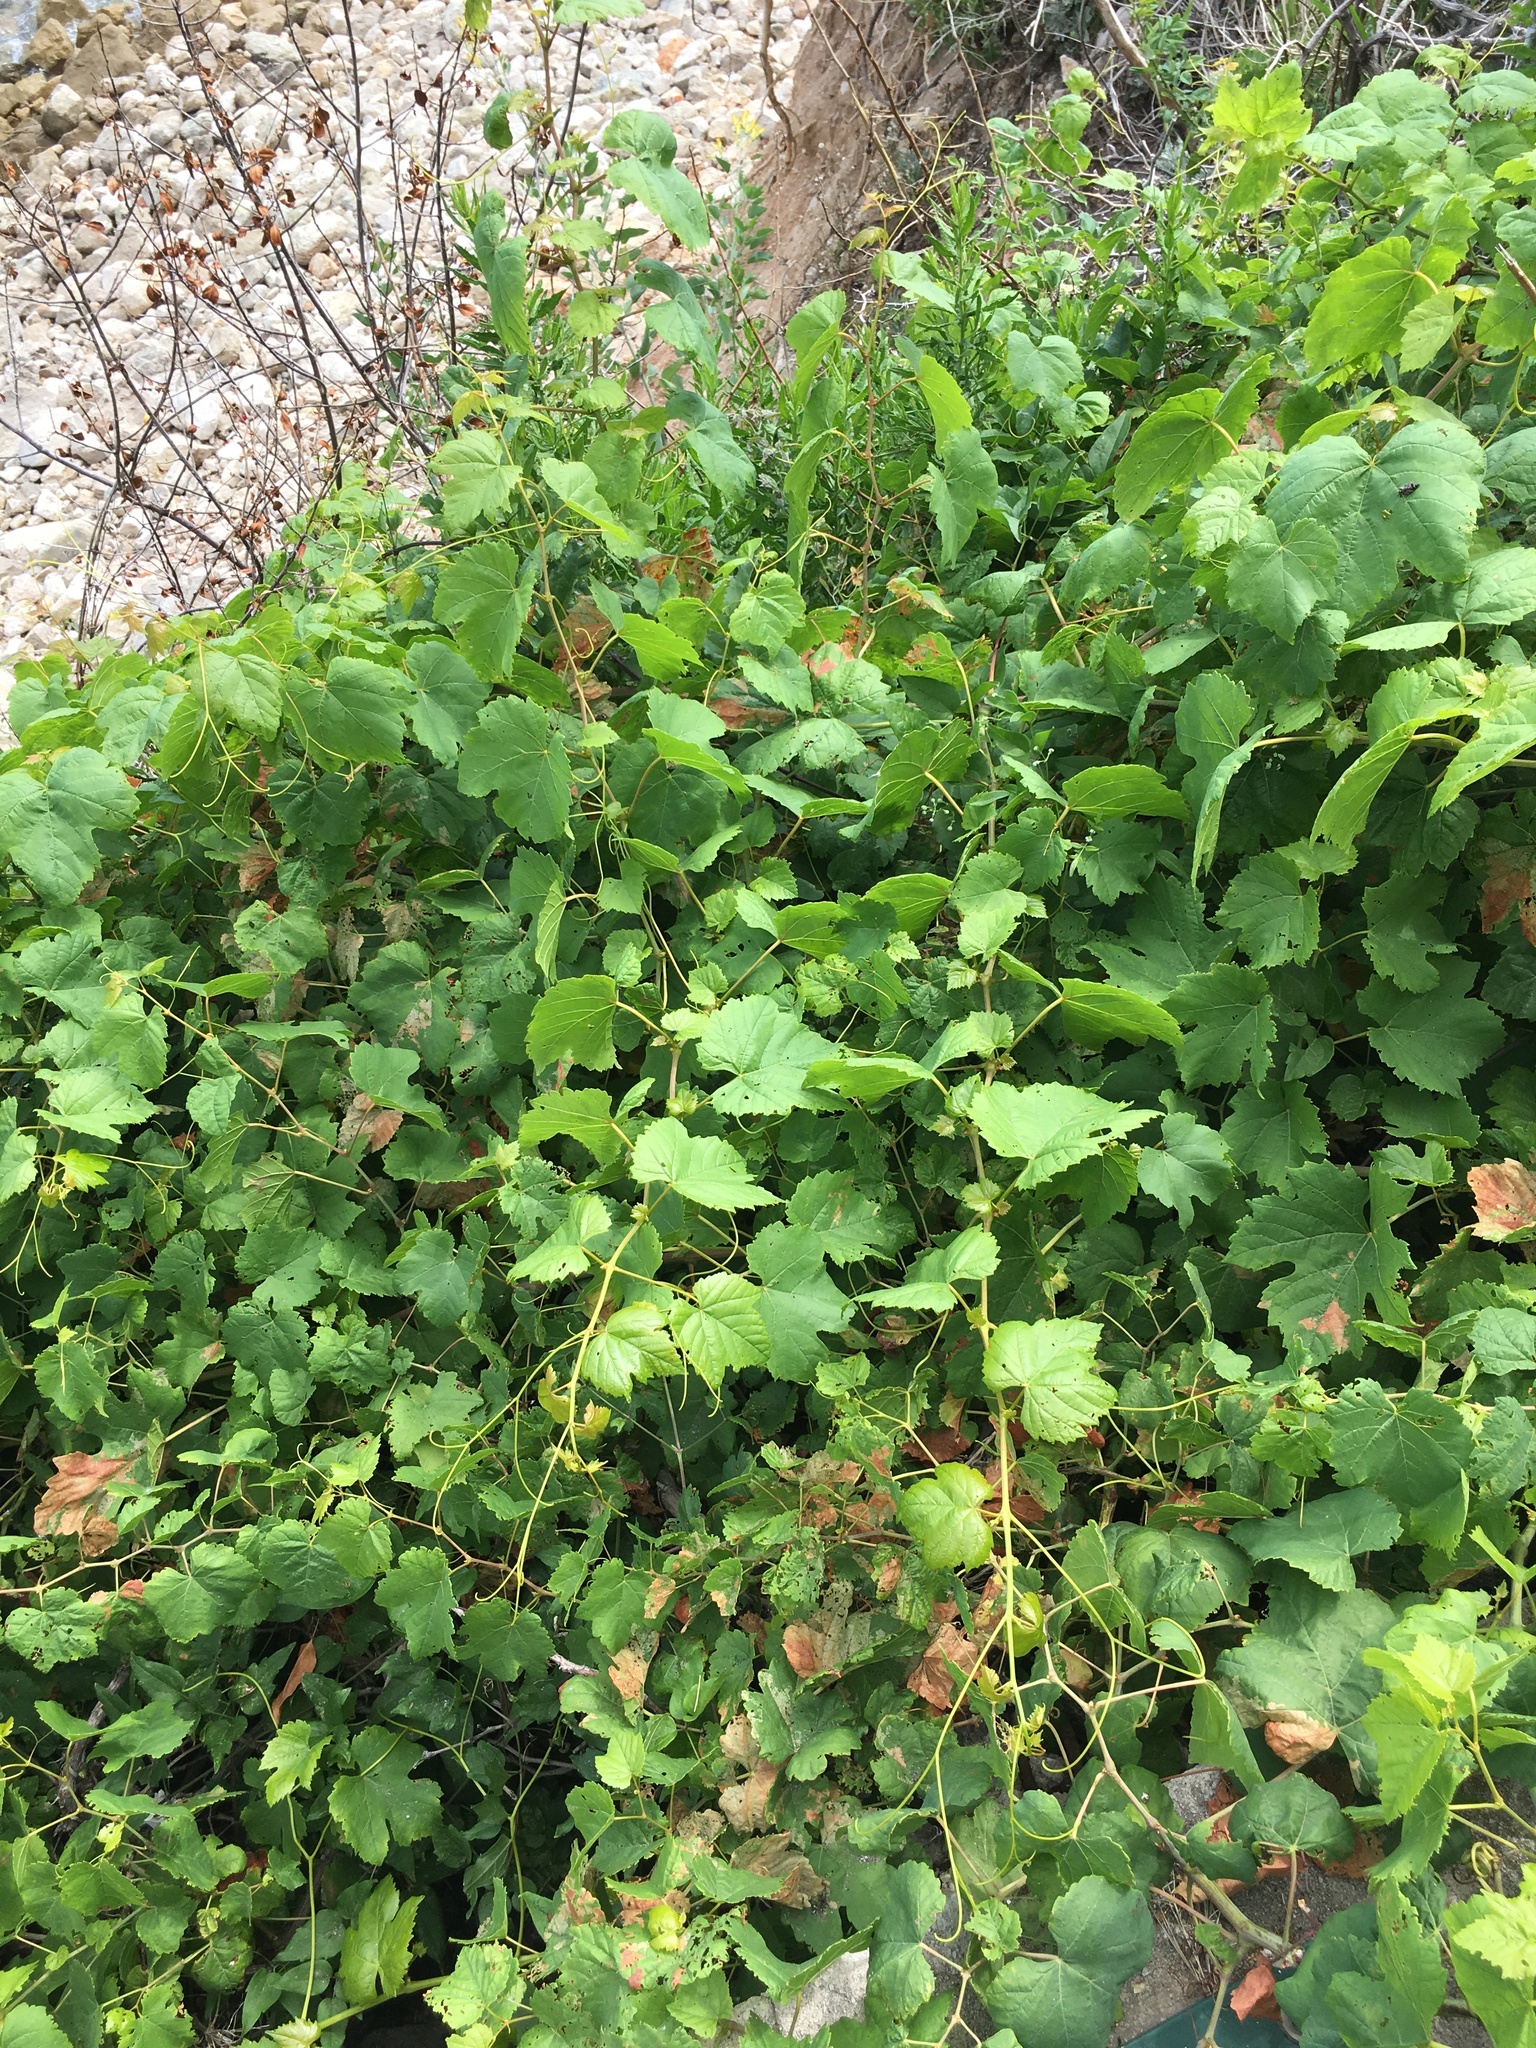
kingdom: Plantae
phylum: Tracheophyta
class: Magnoliopsida
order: Vitales
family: Vitaceae
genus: Vitis
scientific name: Vitis vinifera
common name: Grape-vine
